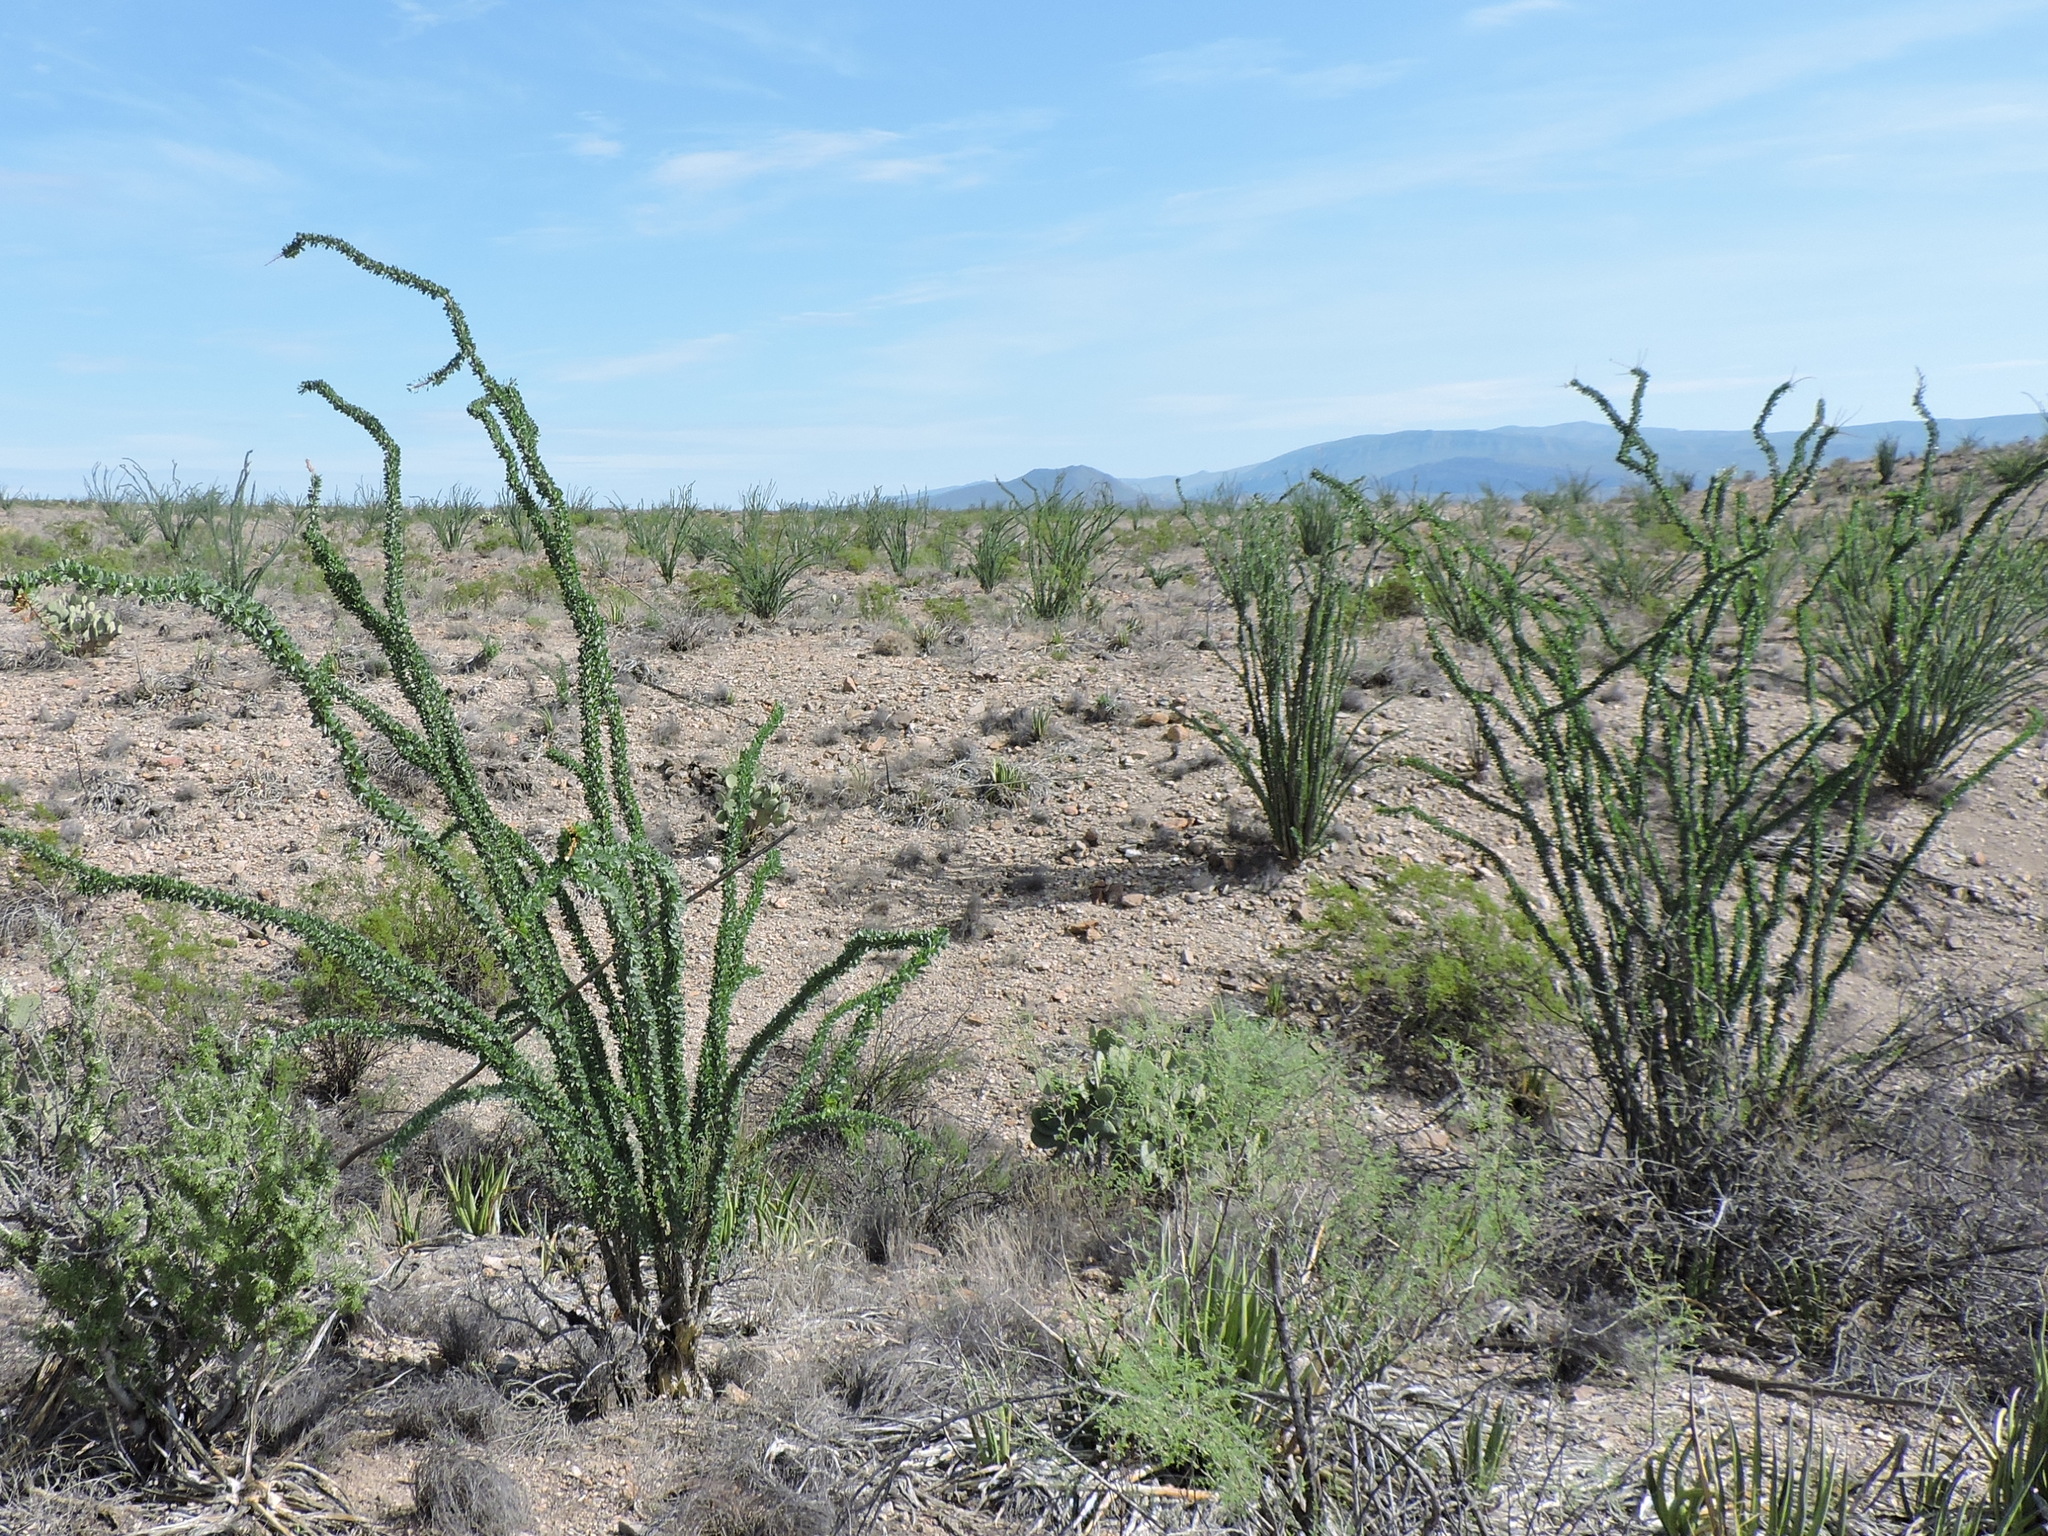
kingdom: Plantae
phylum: Tracheophyta
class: Magnoliopsida
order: Ericales
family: Fouquieriaceae
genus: Fouquieria
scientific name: Fouquieria splendens
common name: Vine-cactus
